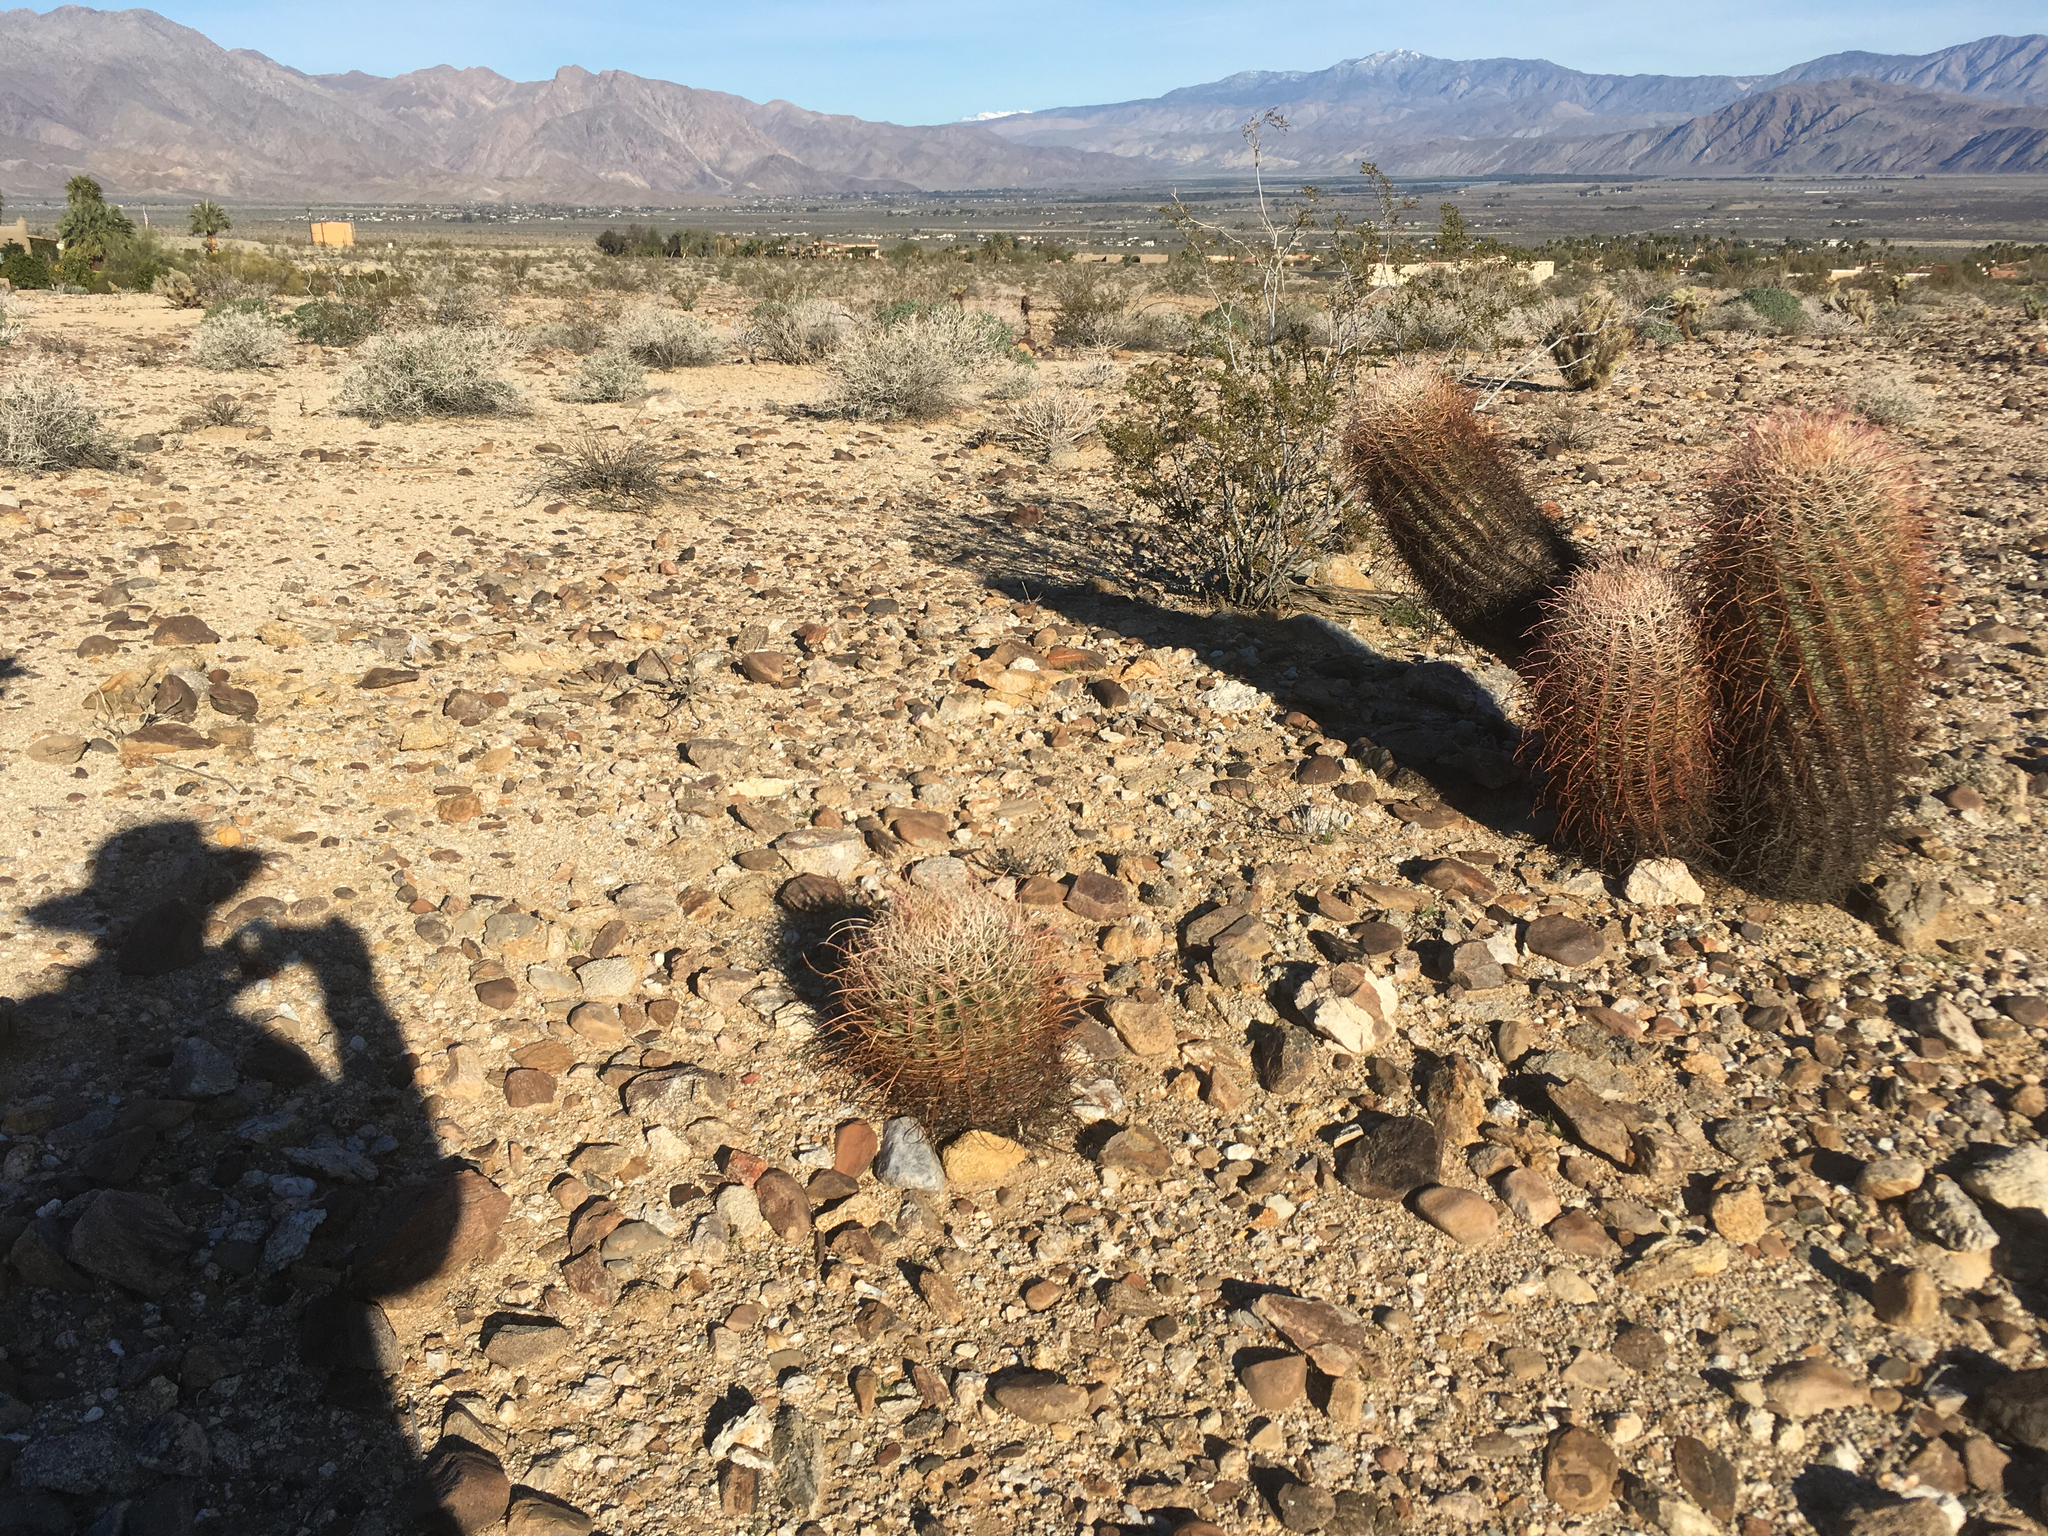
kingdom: Plantae
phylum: Tracheophyta
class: Magnoliopsida
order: Caryophyllales
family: Cactaceae
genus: Ferocactus
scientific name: Ferocactus cylindraceus
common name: California barrel cactus
